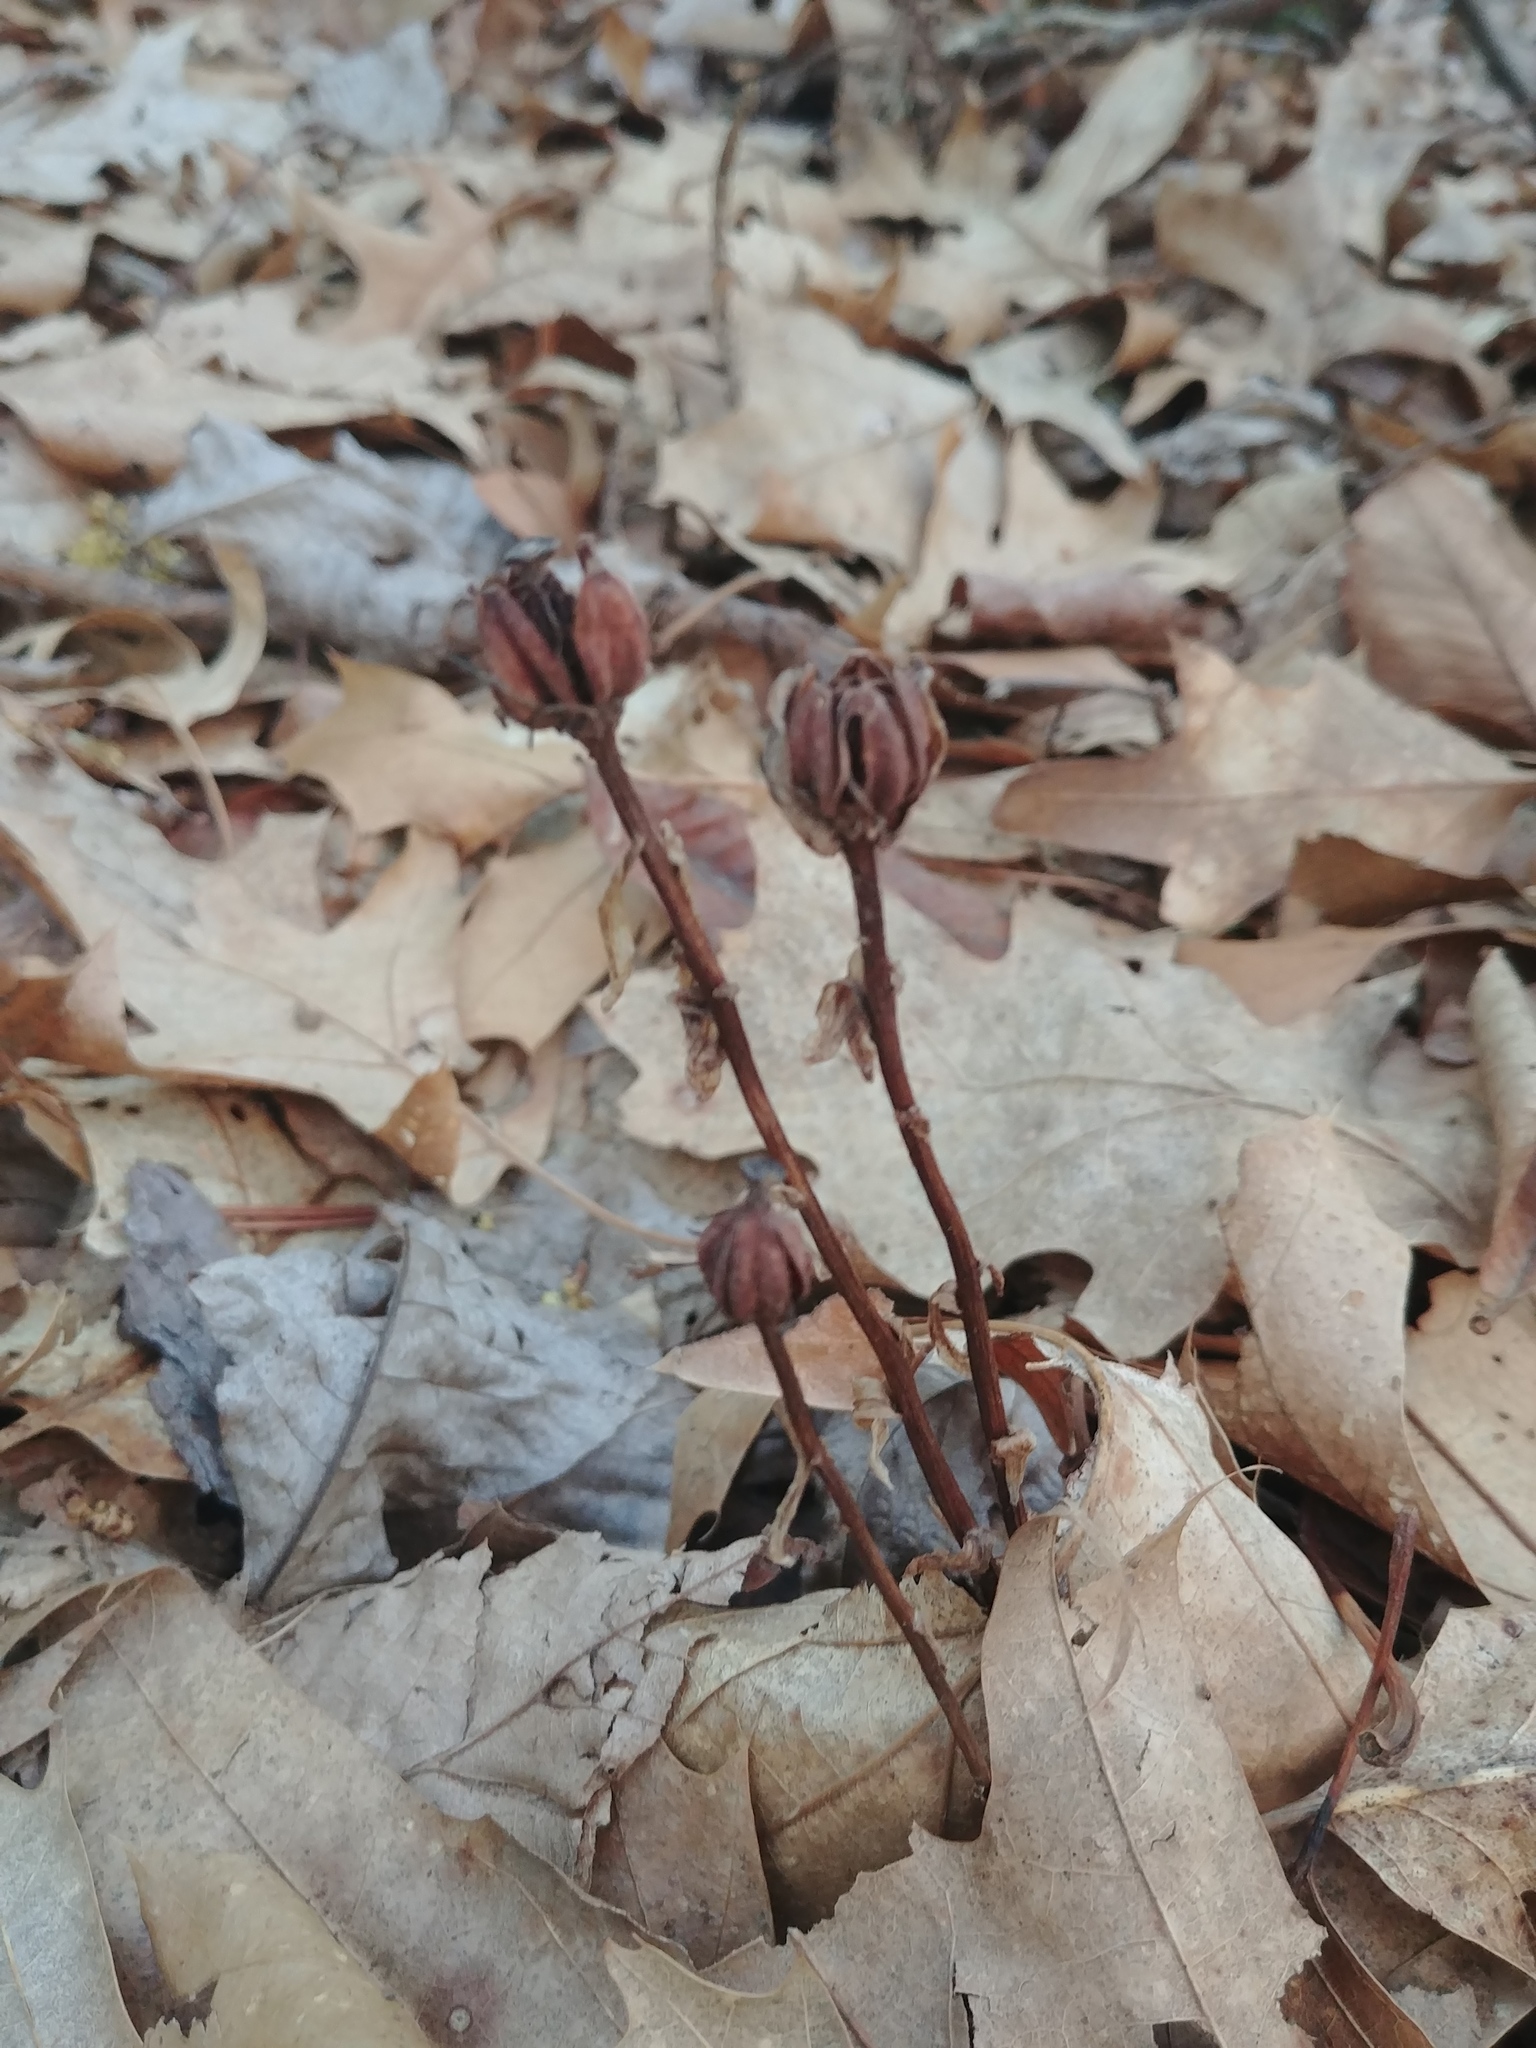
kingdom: Plantae
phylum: Tracheophyta
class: Magnoliopsida
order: Ericales
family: Ericaceae
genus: Monotropa
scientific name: Monotropa uniflora
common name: Convulsion root
